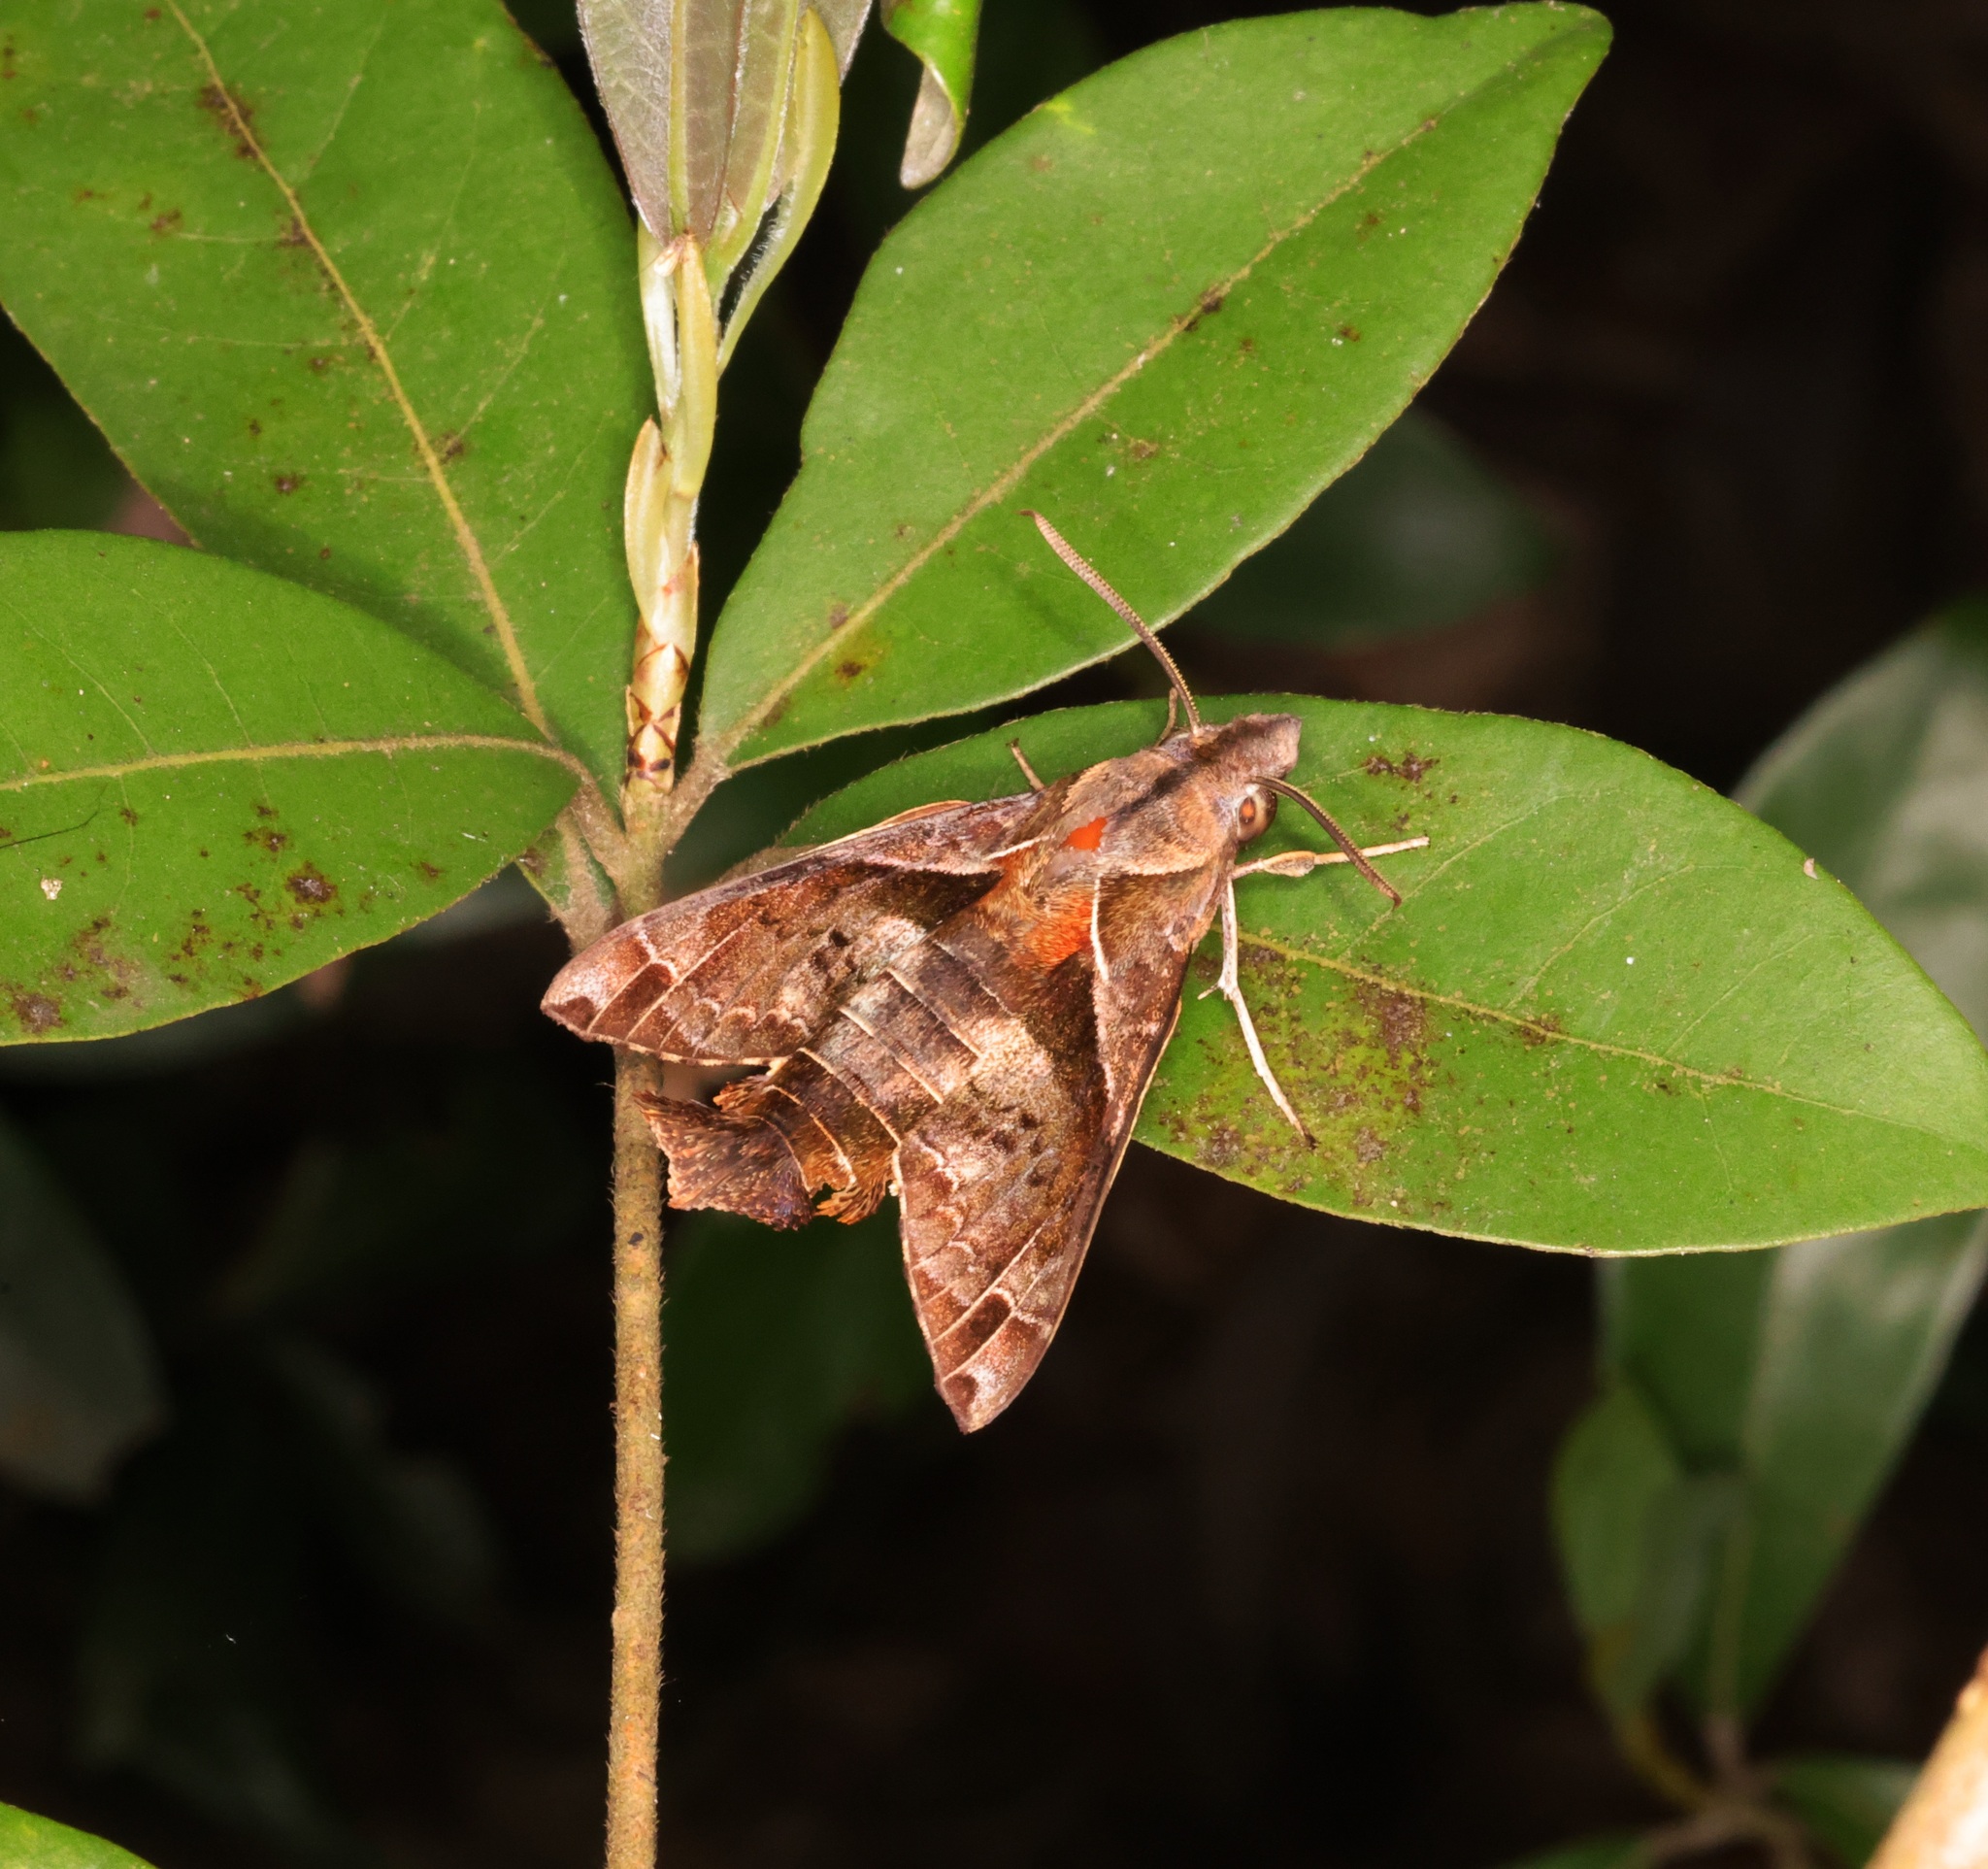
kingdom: Animalia
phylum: Arthropoda
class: Insecta
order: Lepidoptera
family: Sphingidae
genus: Macroglossum
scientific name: Macroglossum fritzei
